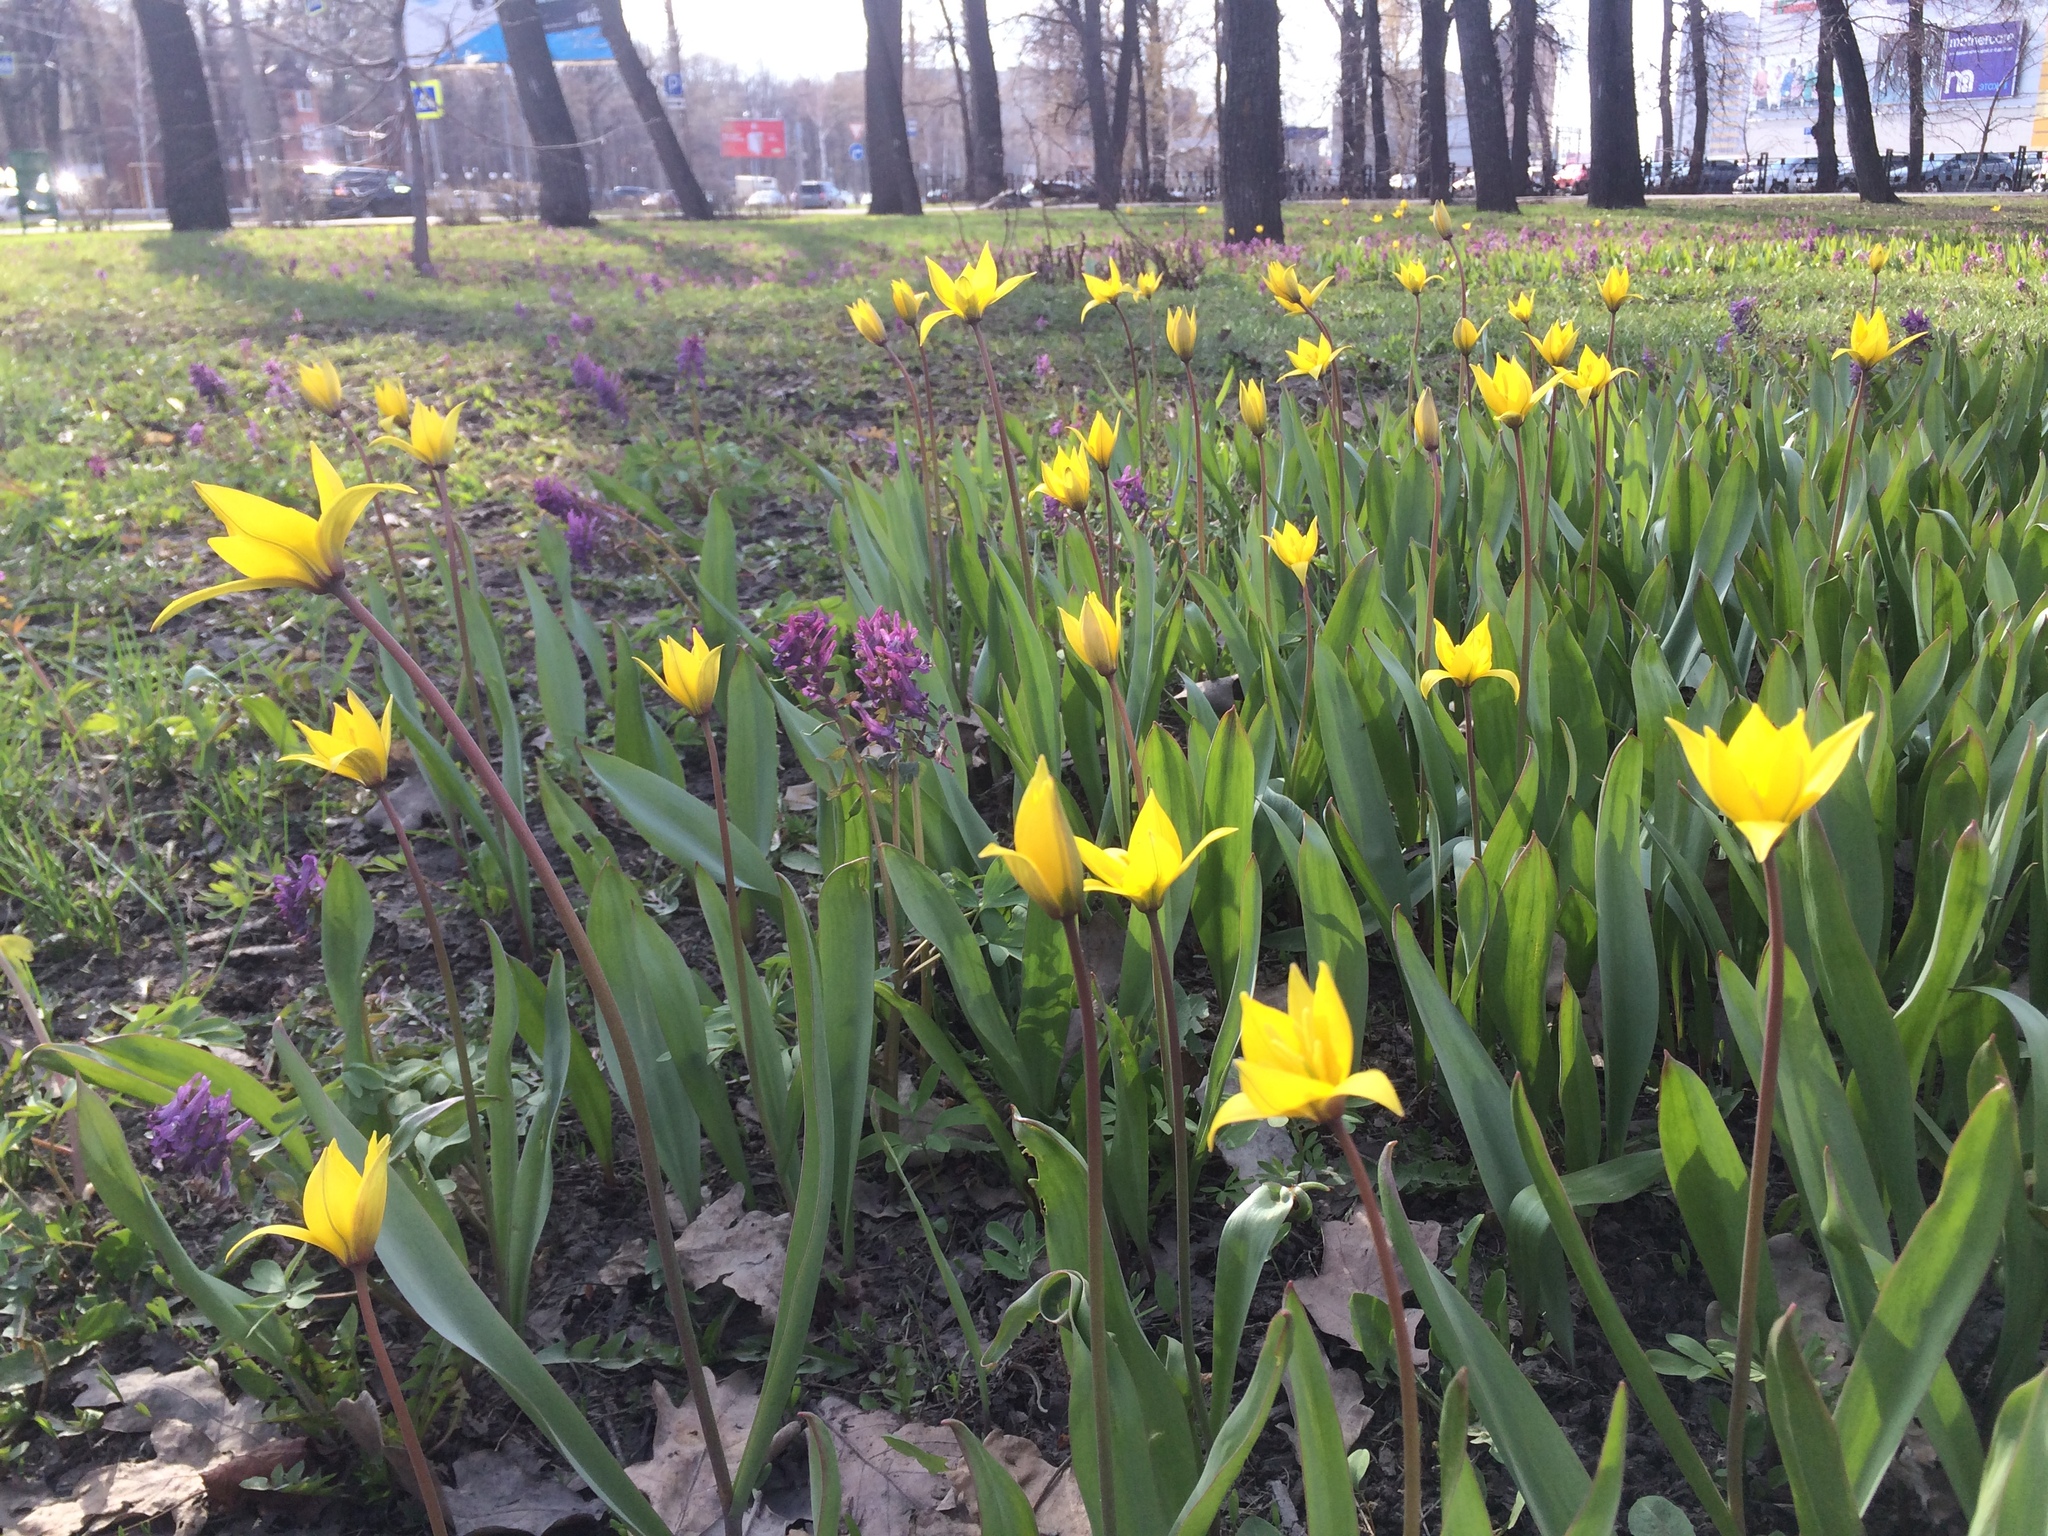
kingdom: Plantae
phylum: Tracheophyta
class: Liliopsida
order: Liliales
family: Liliaceae
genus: Tulipa
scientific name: Tulipa sylvestris
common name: Wild tulip
